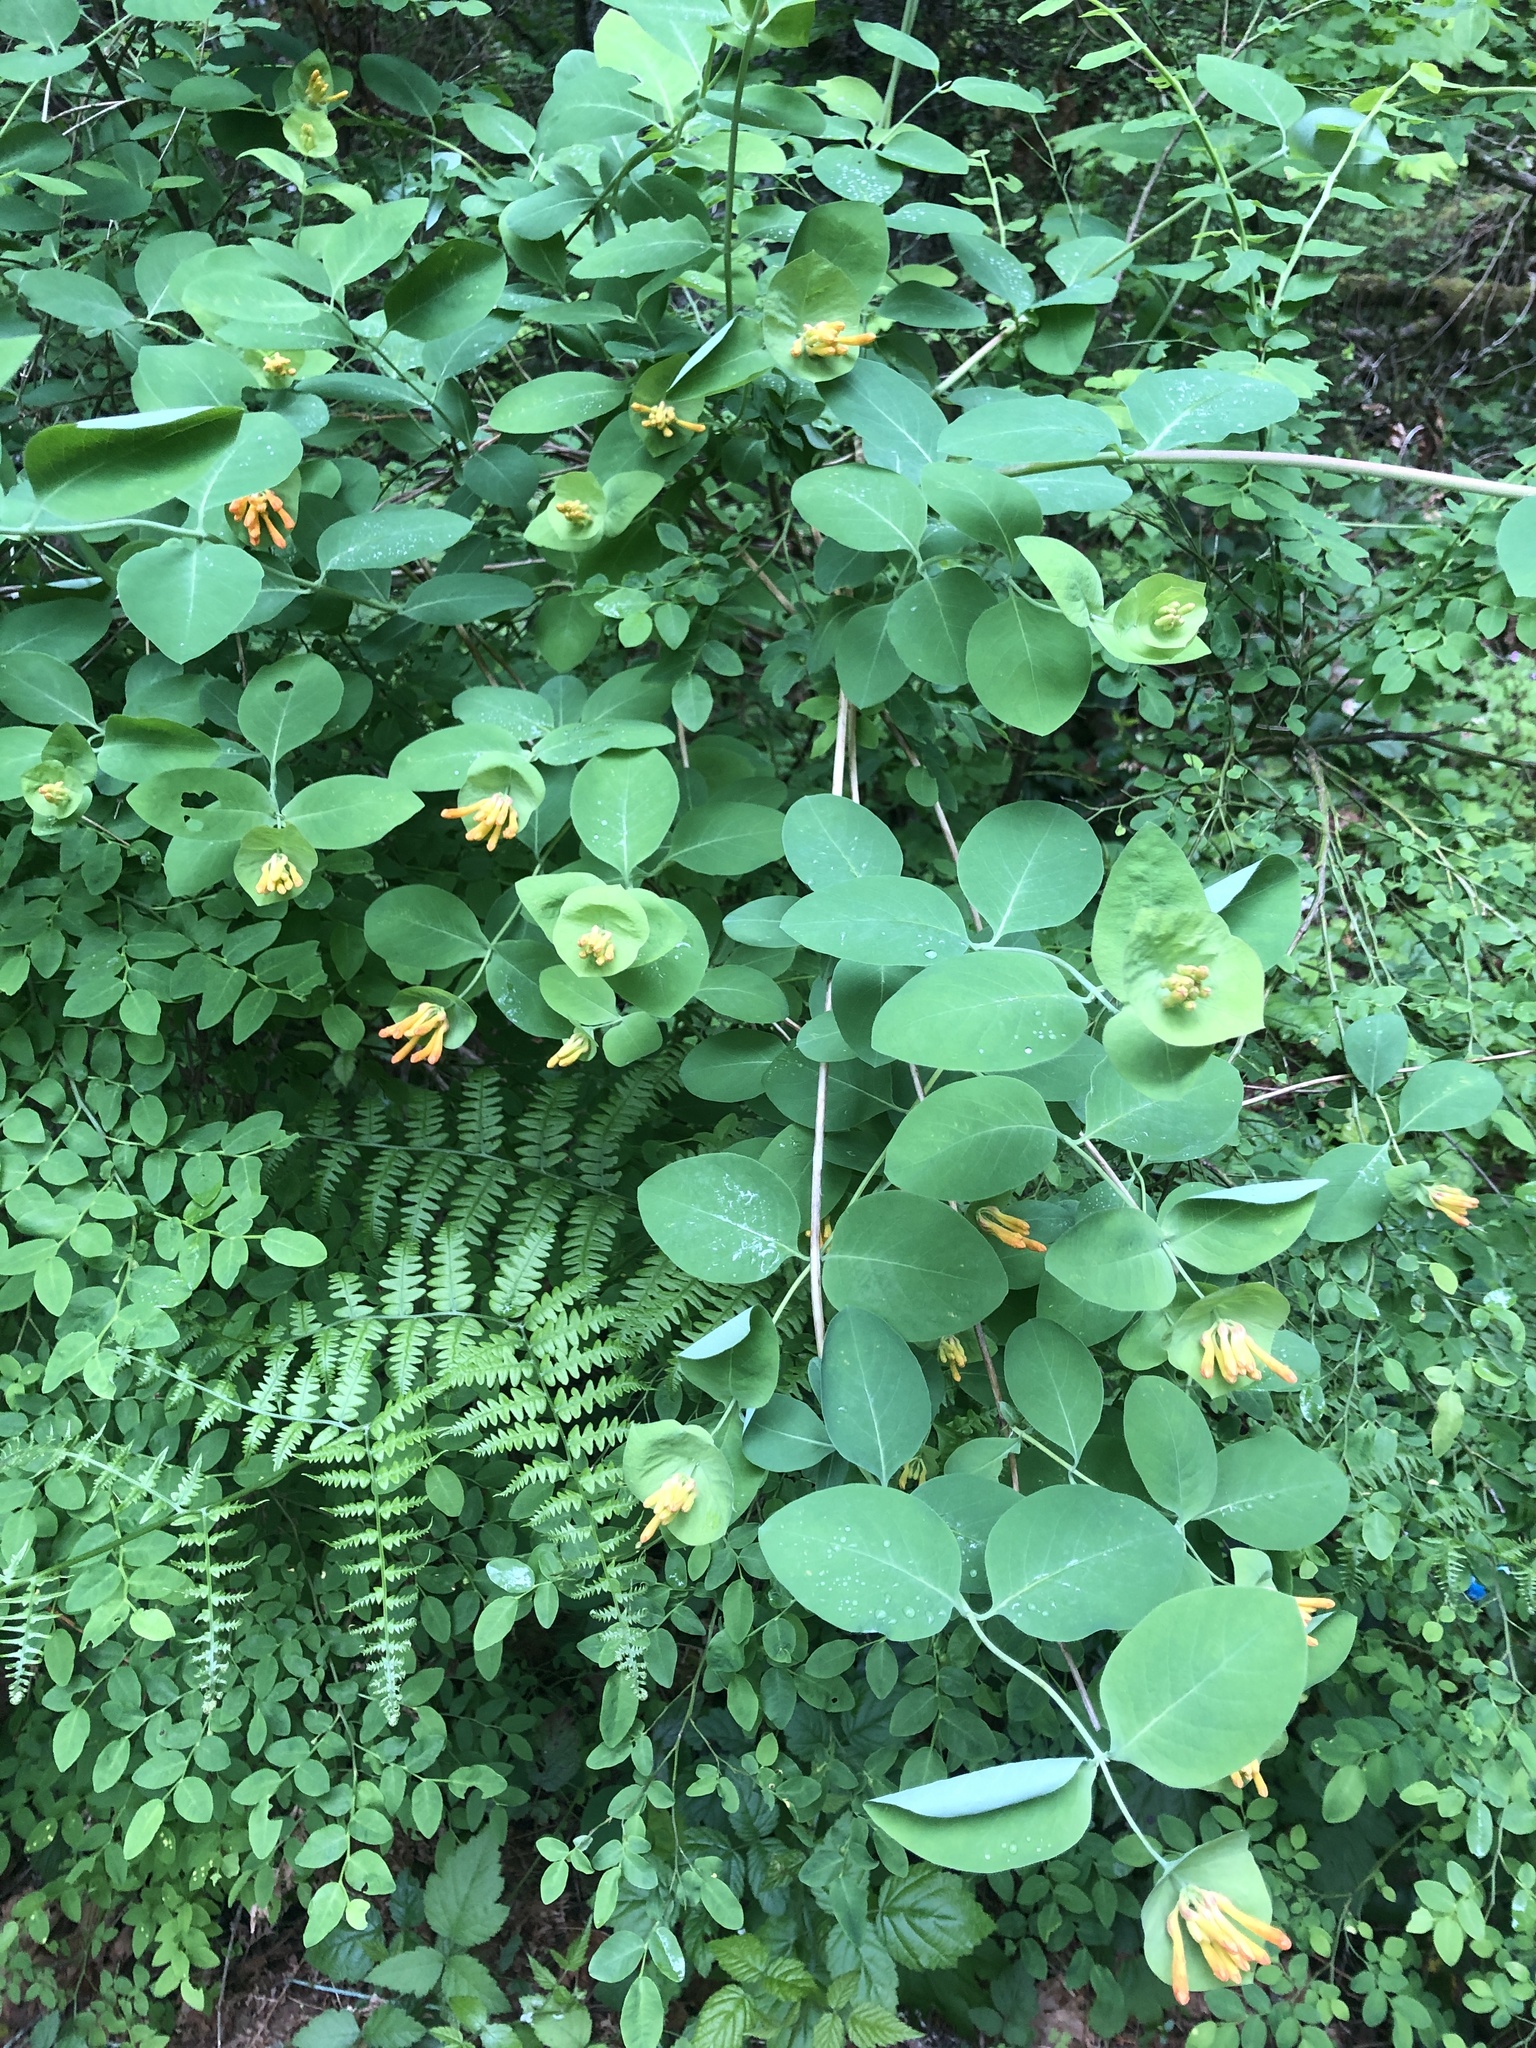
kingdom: Plantae
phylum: Tracheophyta
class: Magnoliopsida
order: Dipsacales
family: Caprifoliaceae
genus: Lonicera
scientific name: Lonicera ciliosa
